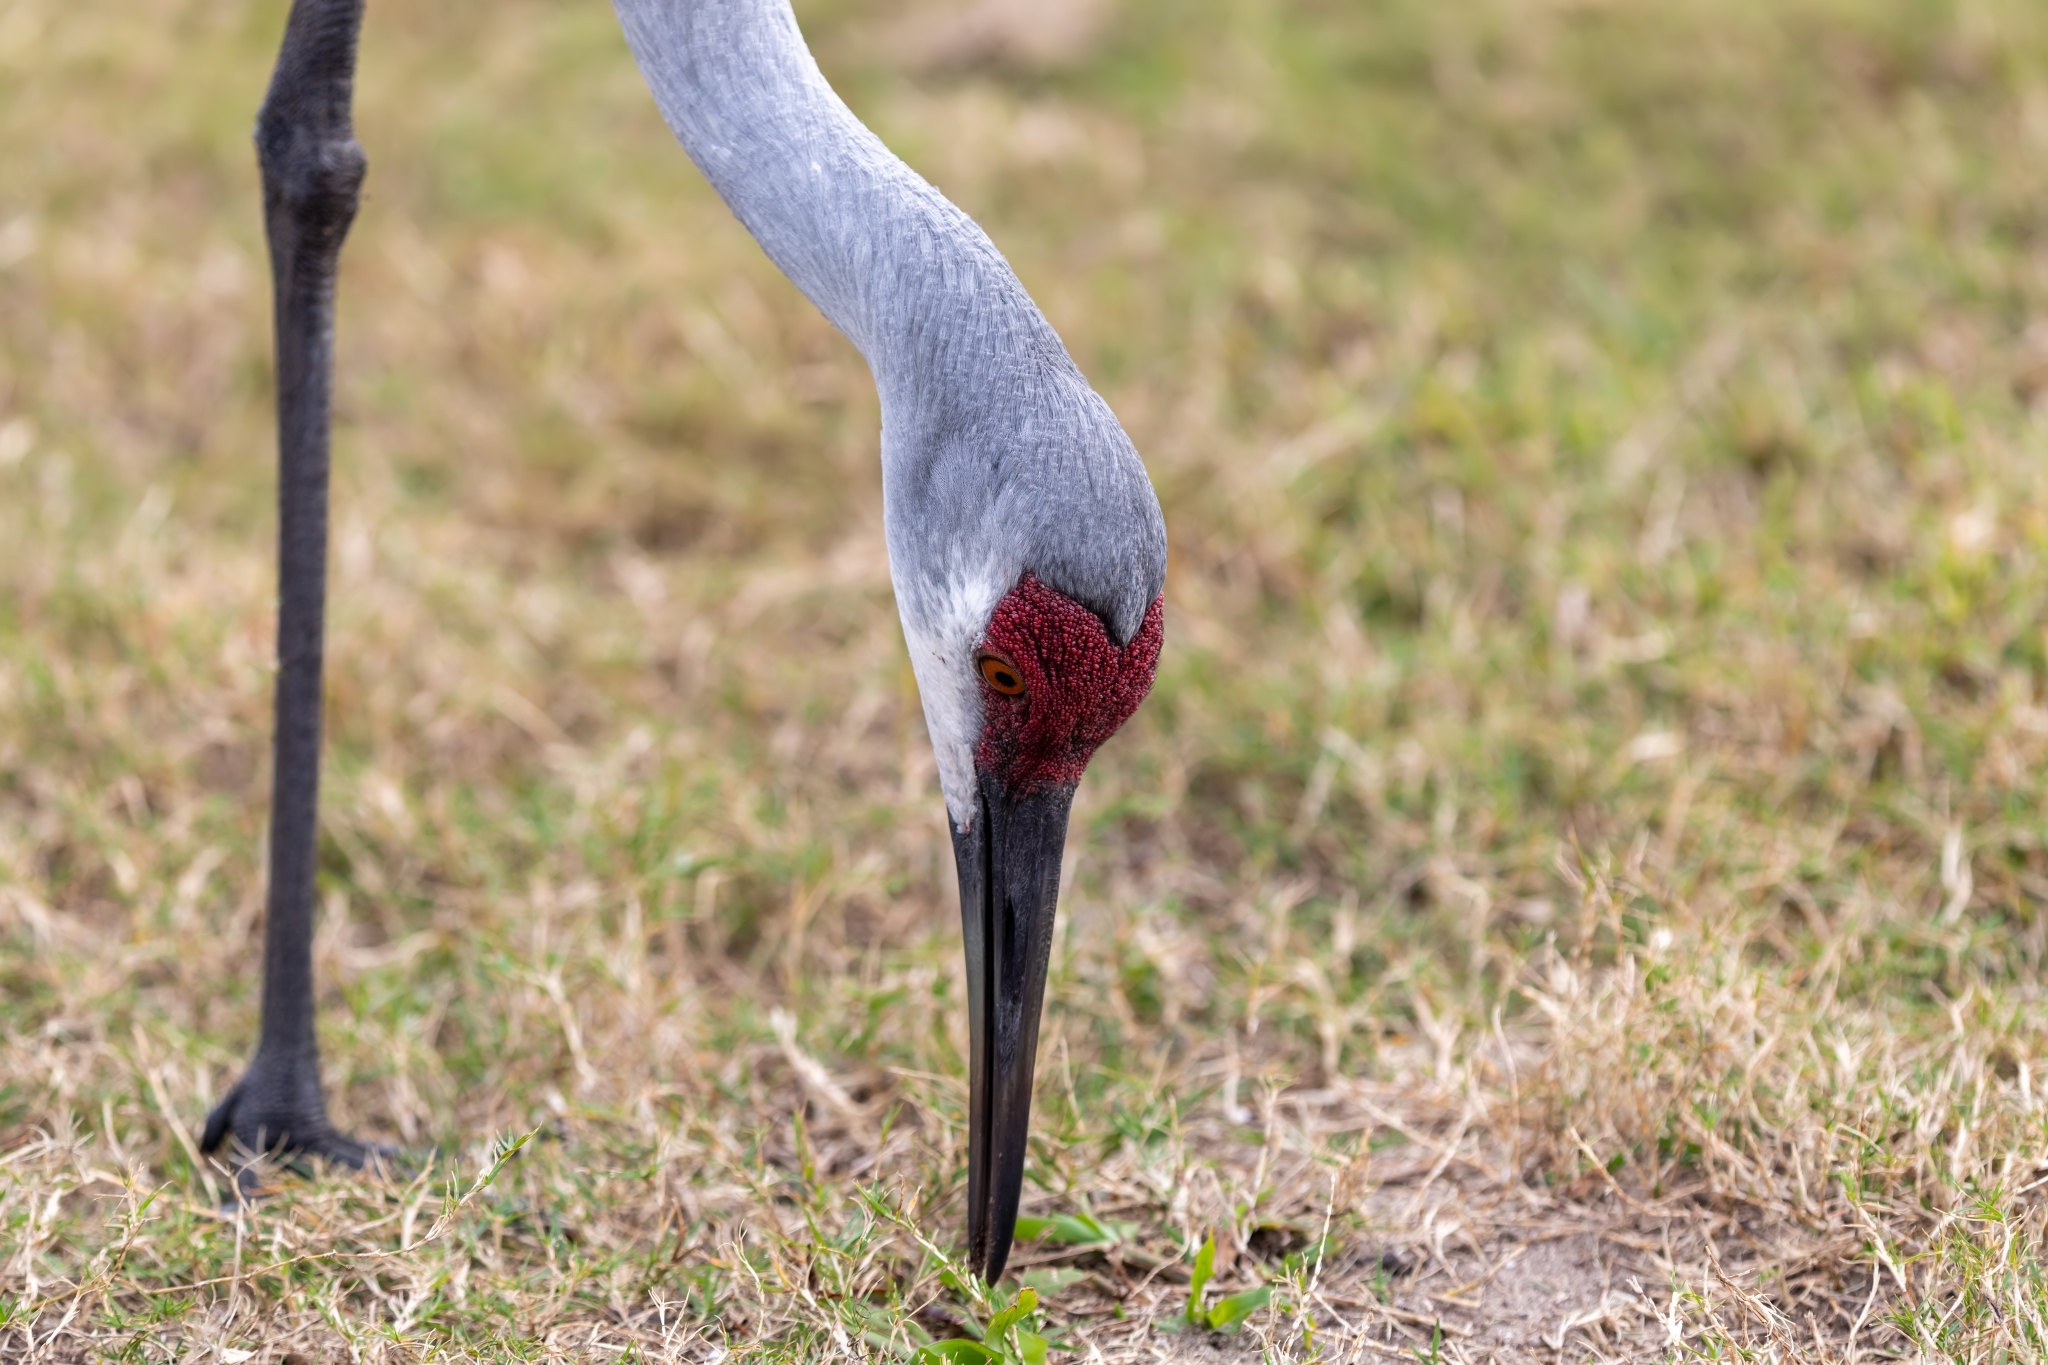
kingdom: Animalia
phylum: Chordata
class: Aves
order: Gruiformes
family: Gruidae
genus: Grus
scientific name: Grus canadensis
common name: Sandhill crane
